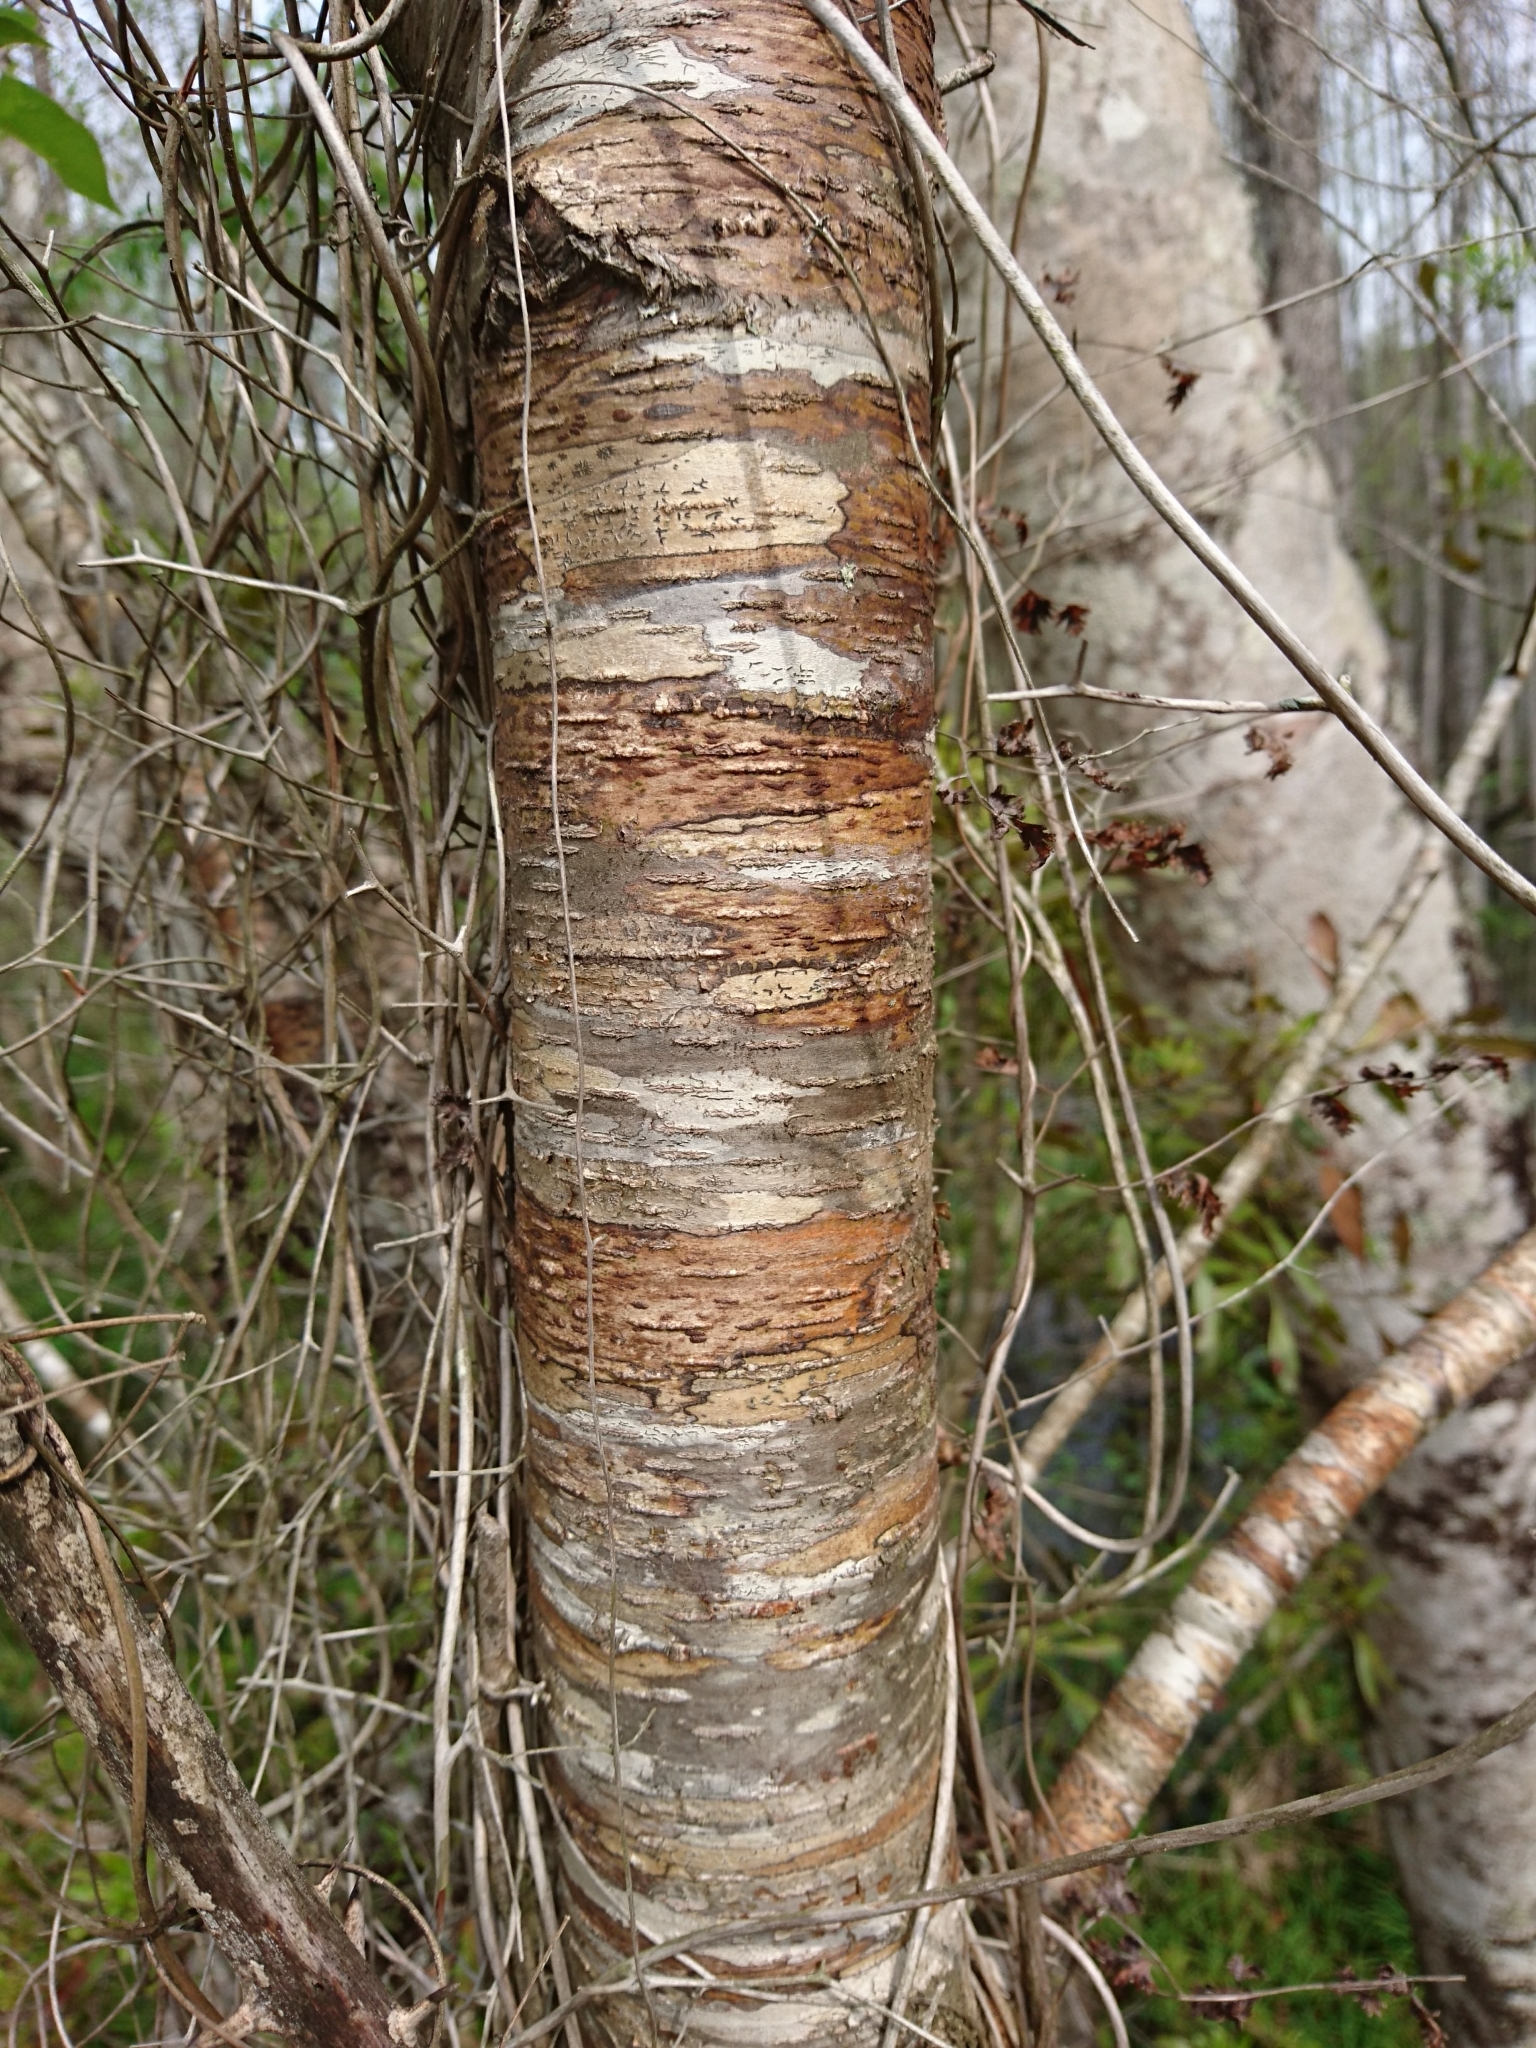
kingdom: Plantae
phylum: Tracheophyta
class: Magnoliopsida
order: Rosales
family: Rosaceae
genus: Prunus
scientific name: Prunus serotina
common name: Black cherry
